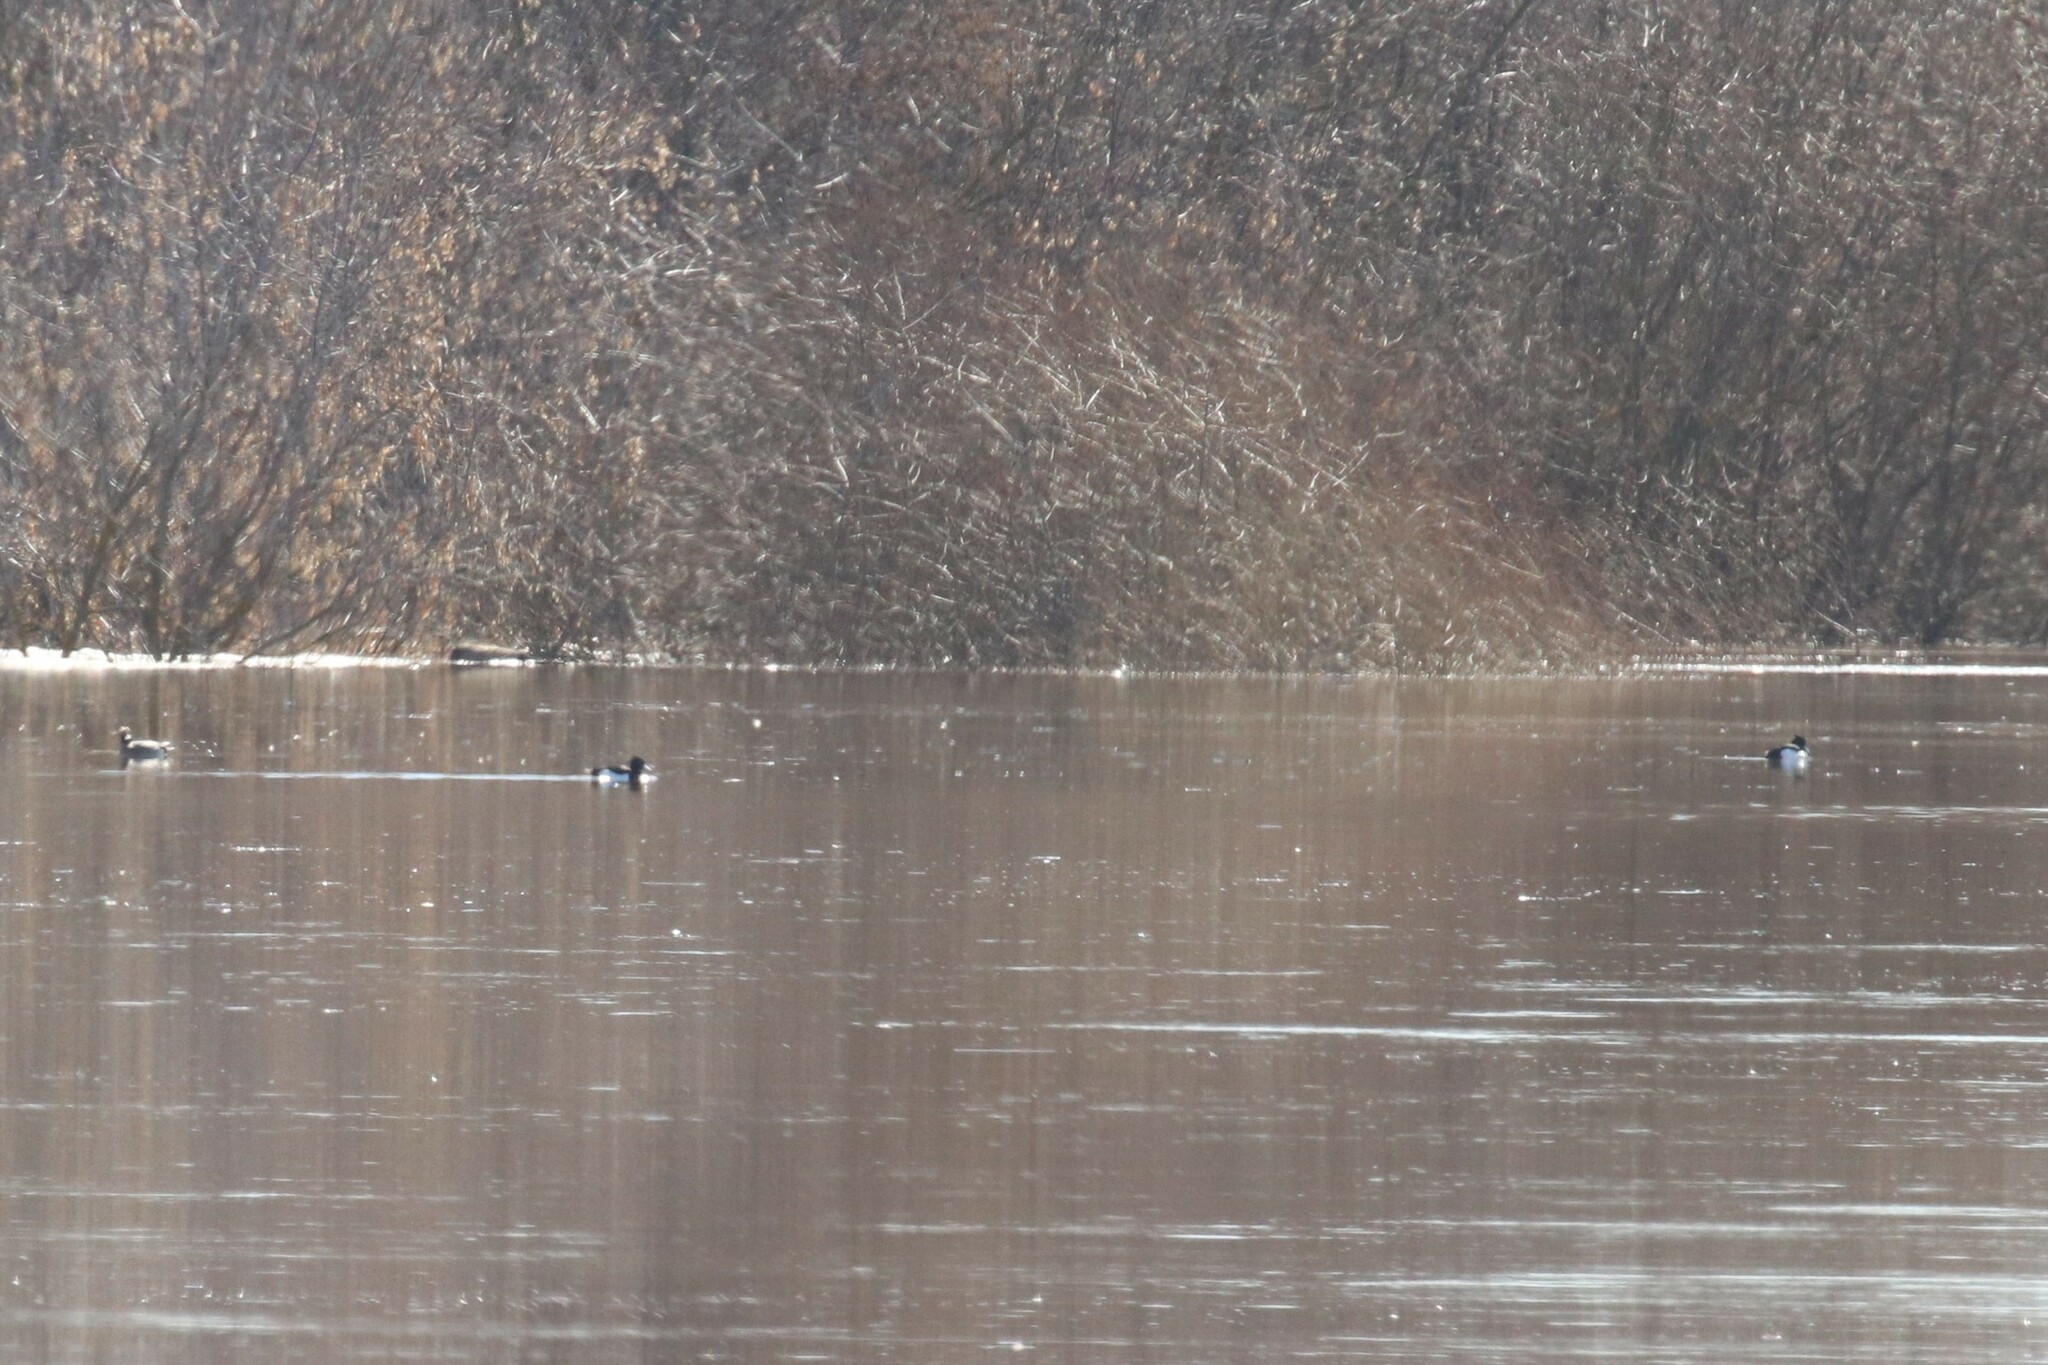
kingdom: Animalia
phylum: Chordata
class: Aves
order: Anseriformes
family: Anatidae
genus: Aythya
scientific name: Aythya fuligula
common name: Tufted duck
